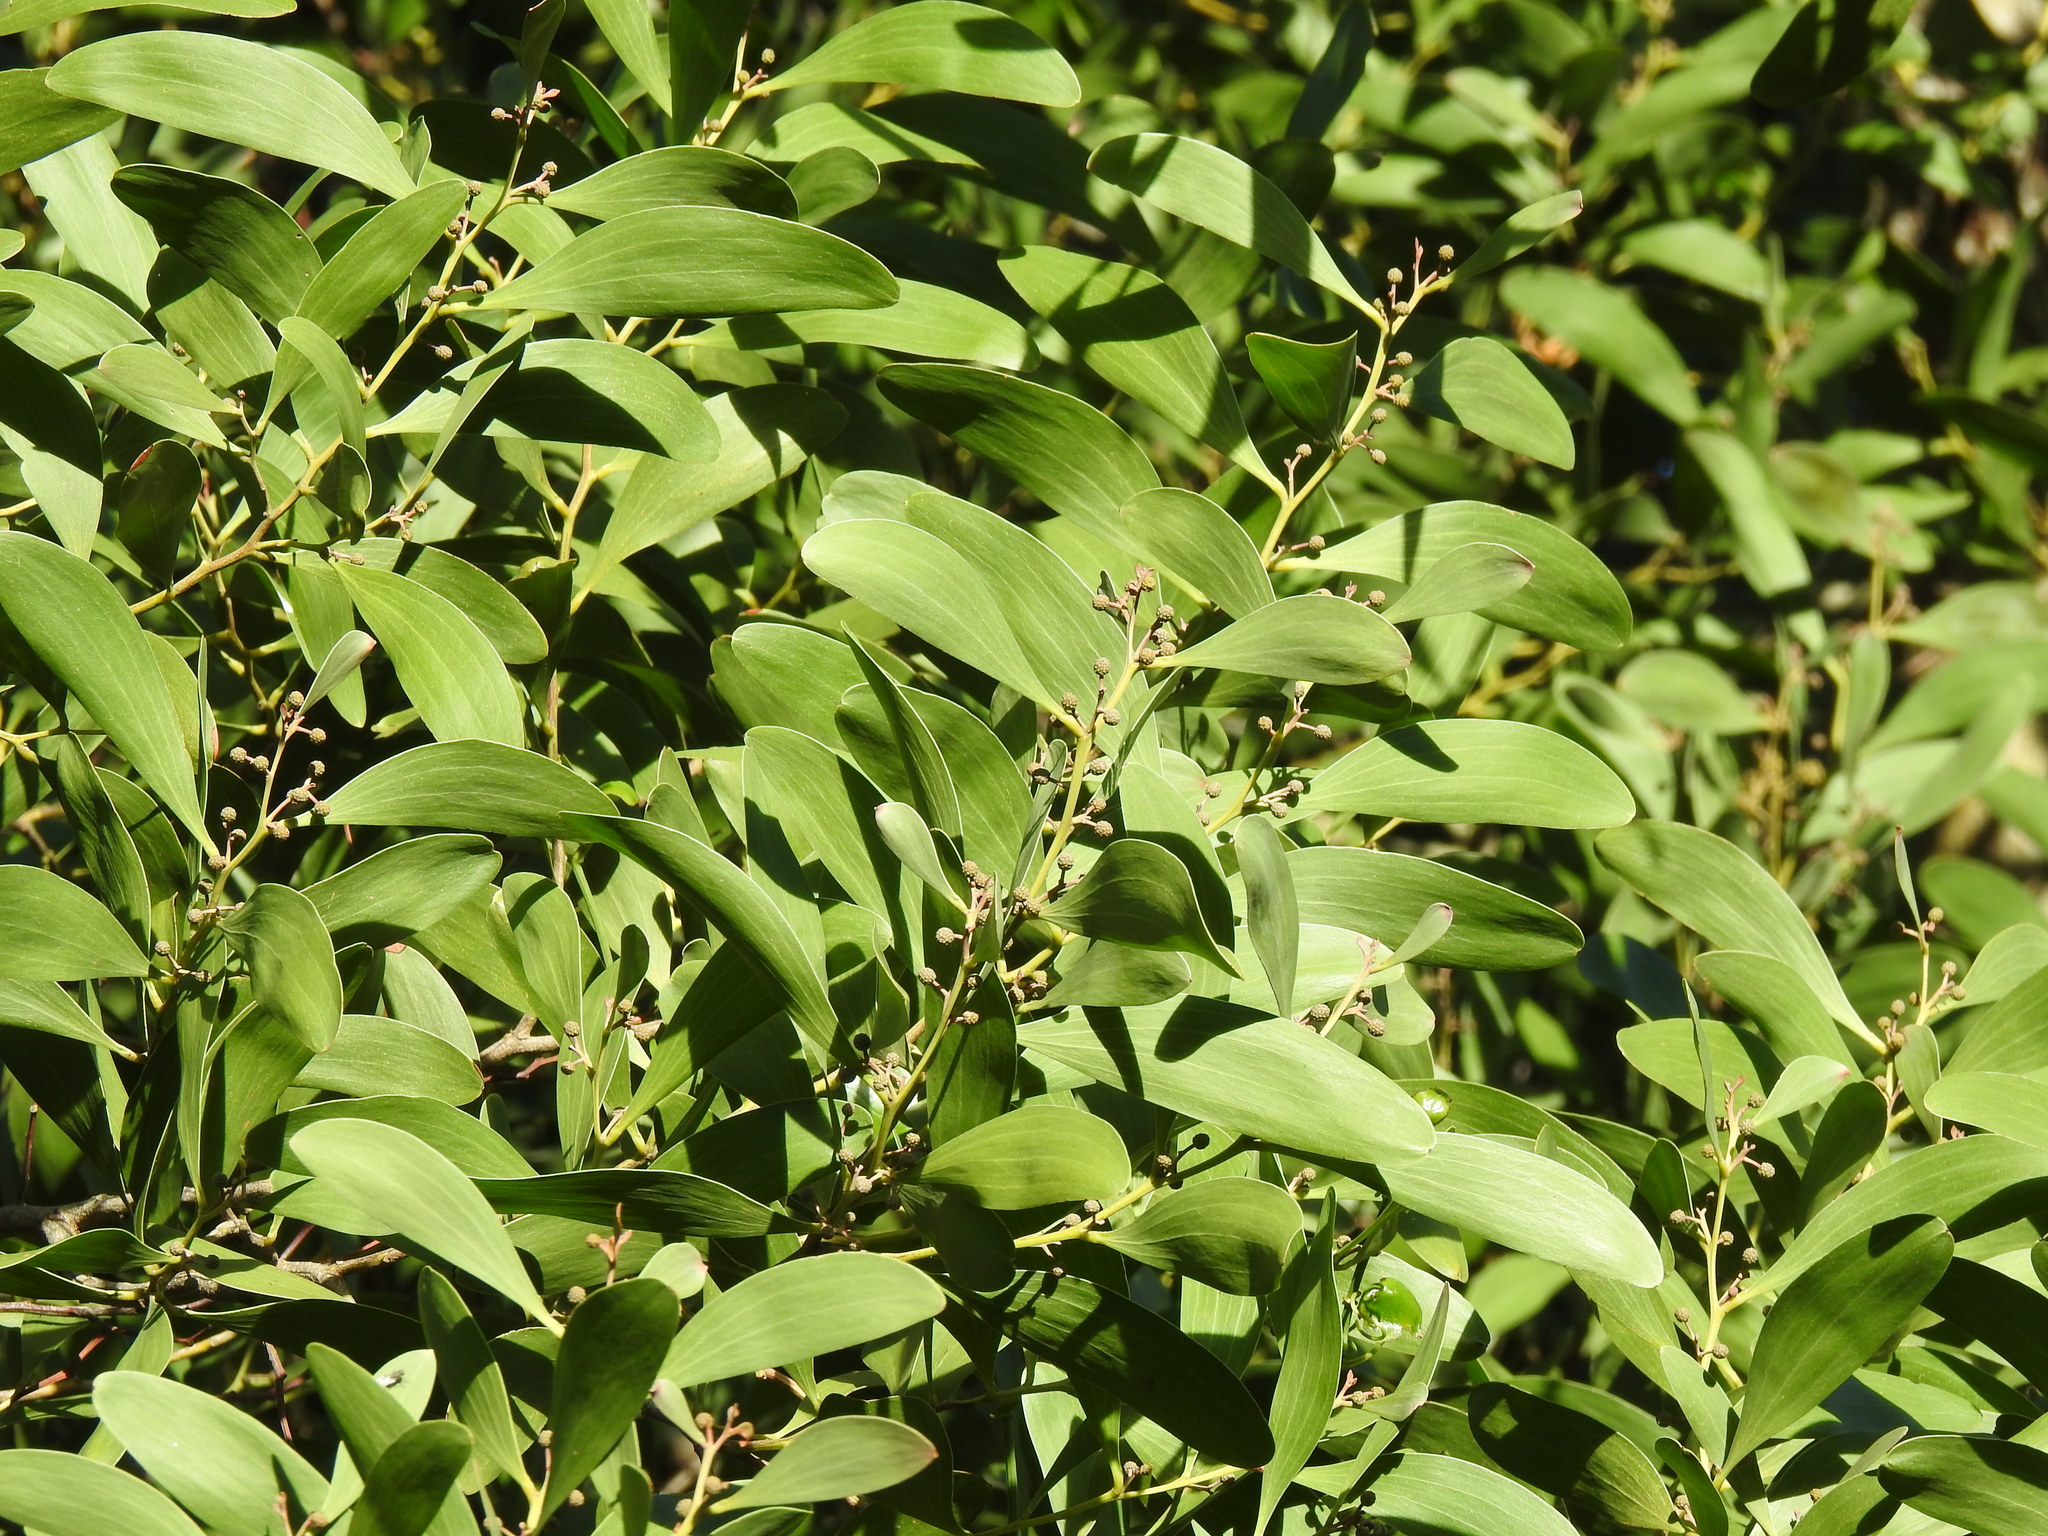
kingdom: Plantae
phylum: Tracheophyta
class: Magnoliopsida
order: Fabales
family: Fabaceae
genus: Acacia
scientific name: Acacia melanoxylon
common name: Blackwood
